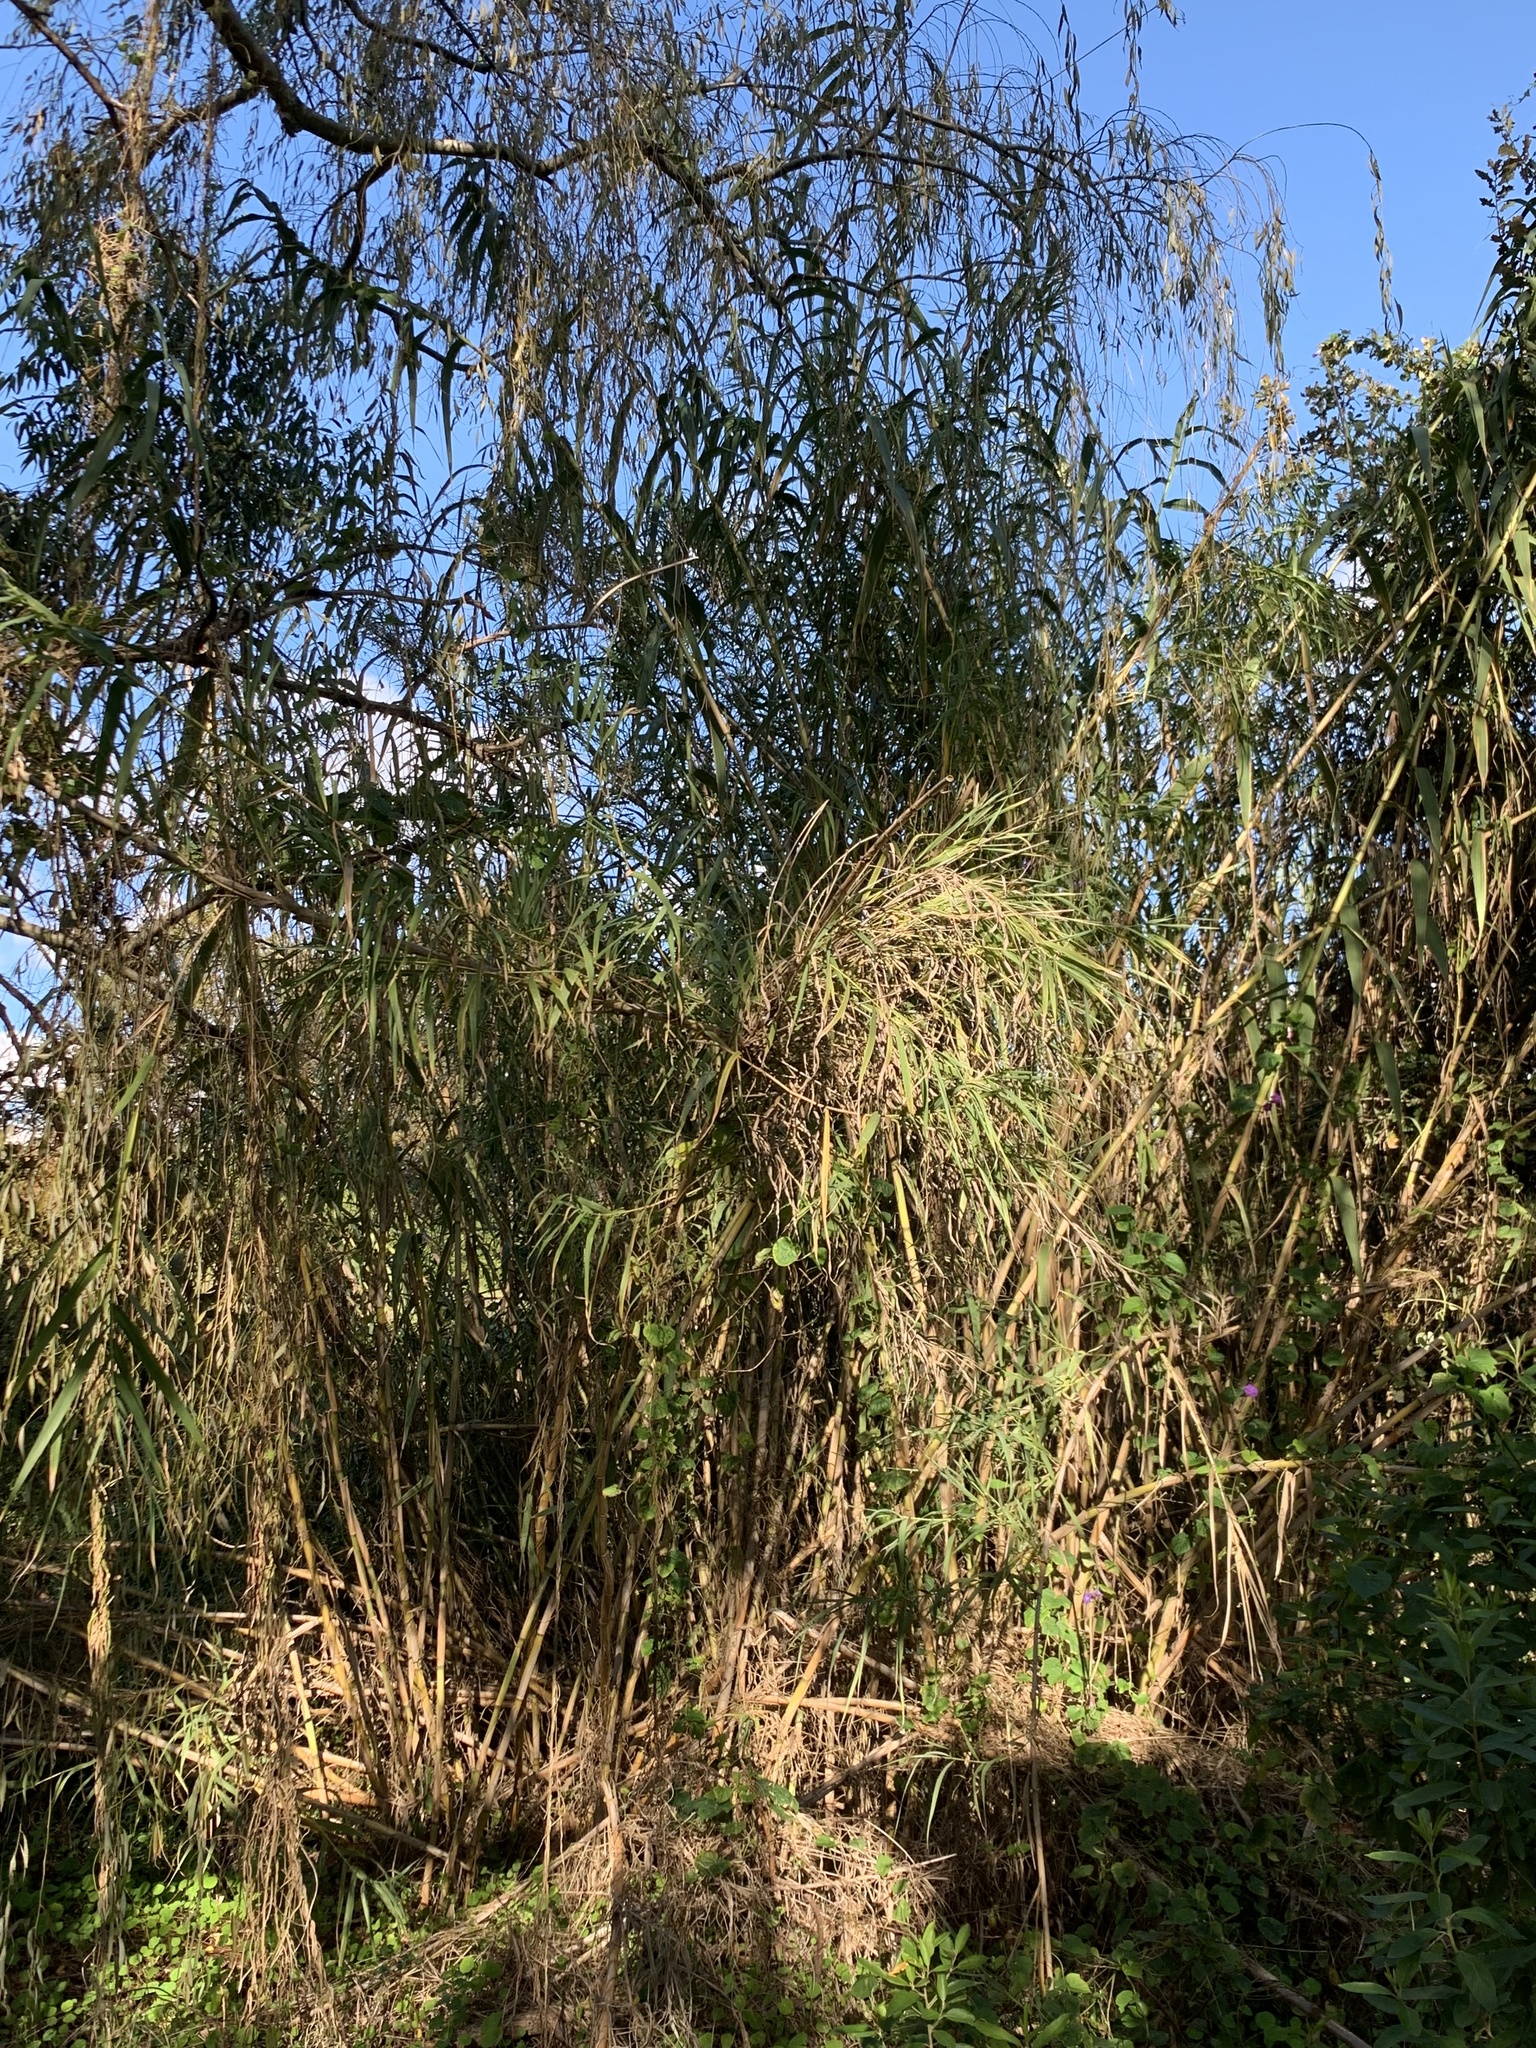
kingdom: Plantae
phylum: Tracheophyta
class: Liliopsida
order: Poales
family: Poaceae
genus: Arundo
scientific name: Arundo donax
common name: Giant reed
